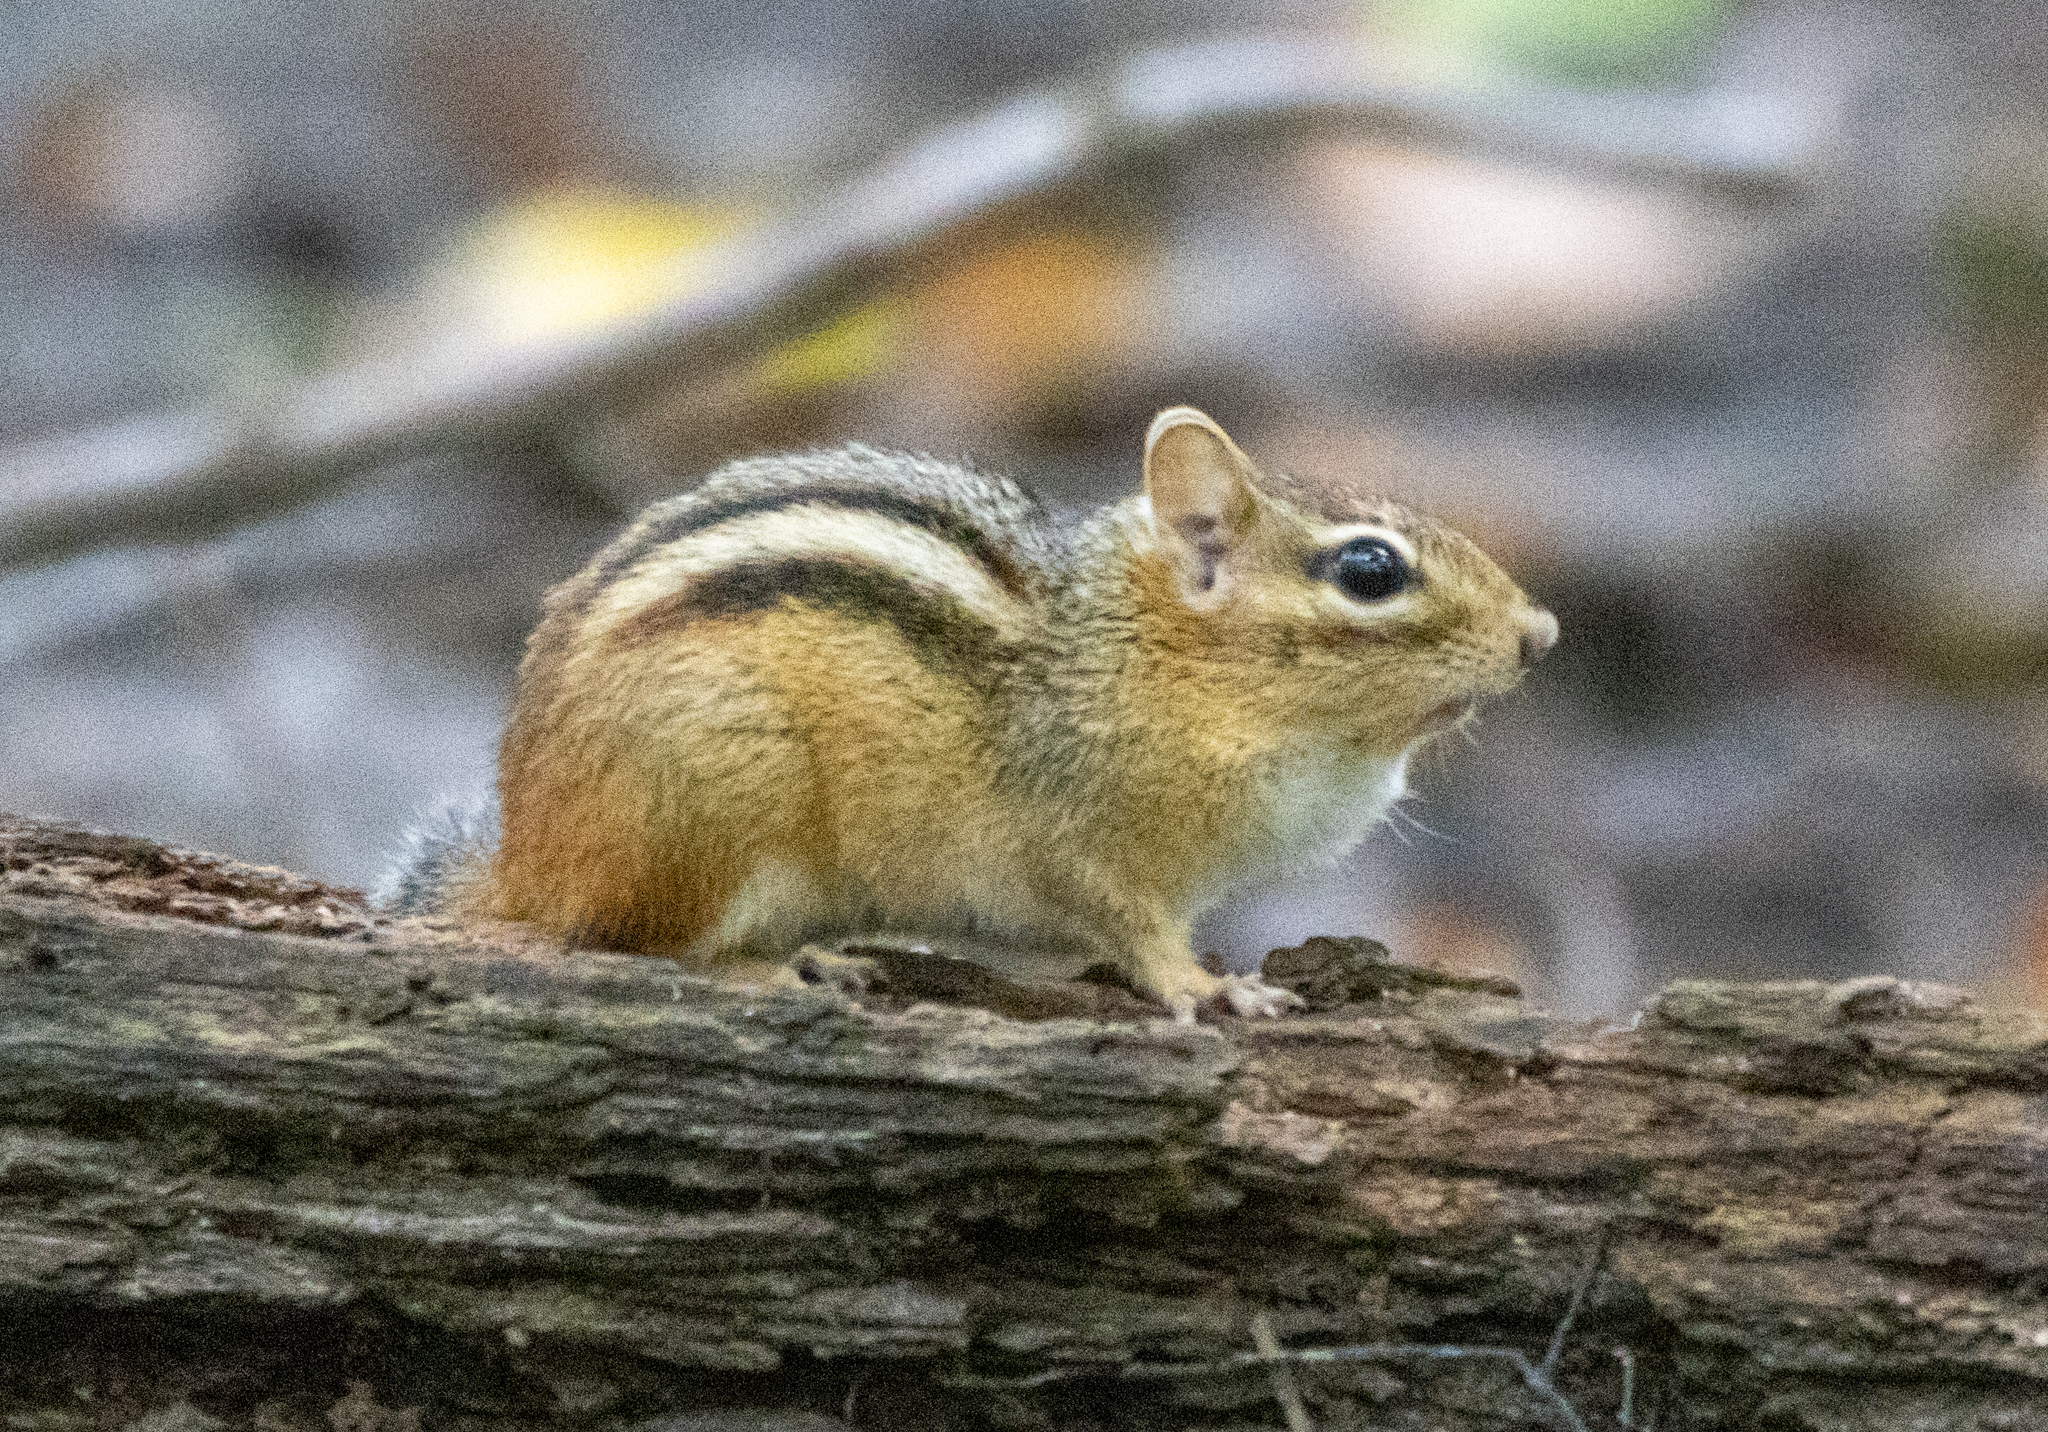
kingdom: Animalia
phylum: Chordata
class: Mammalia
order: Rodentia
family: Sciuridae
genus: Tamias
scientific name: Tamias striatus
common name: Eastern chipmunk
